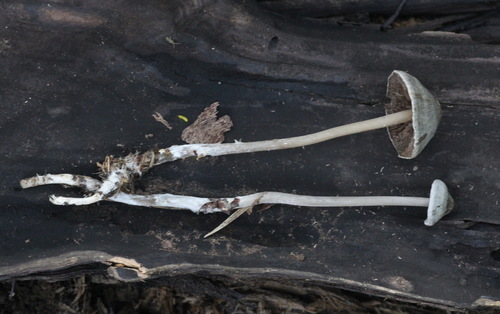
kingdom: Fungi
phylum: Basidiomycota
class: Agaricomycetes
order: Agaricales
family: Lyophyllaceae
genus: Tephrocybe
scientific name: Tephrocybe rancida
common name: Rancid greyling
